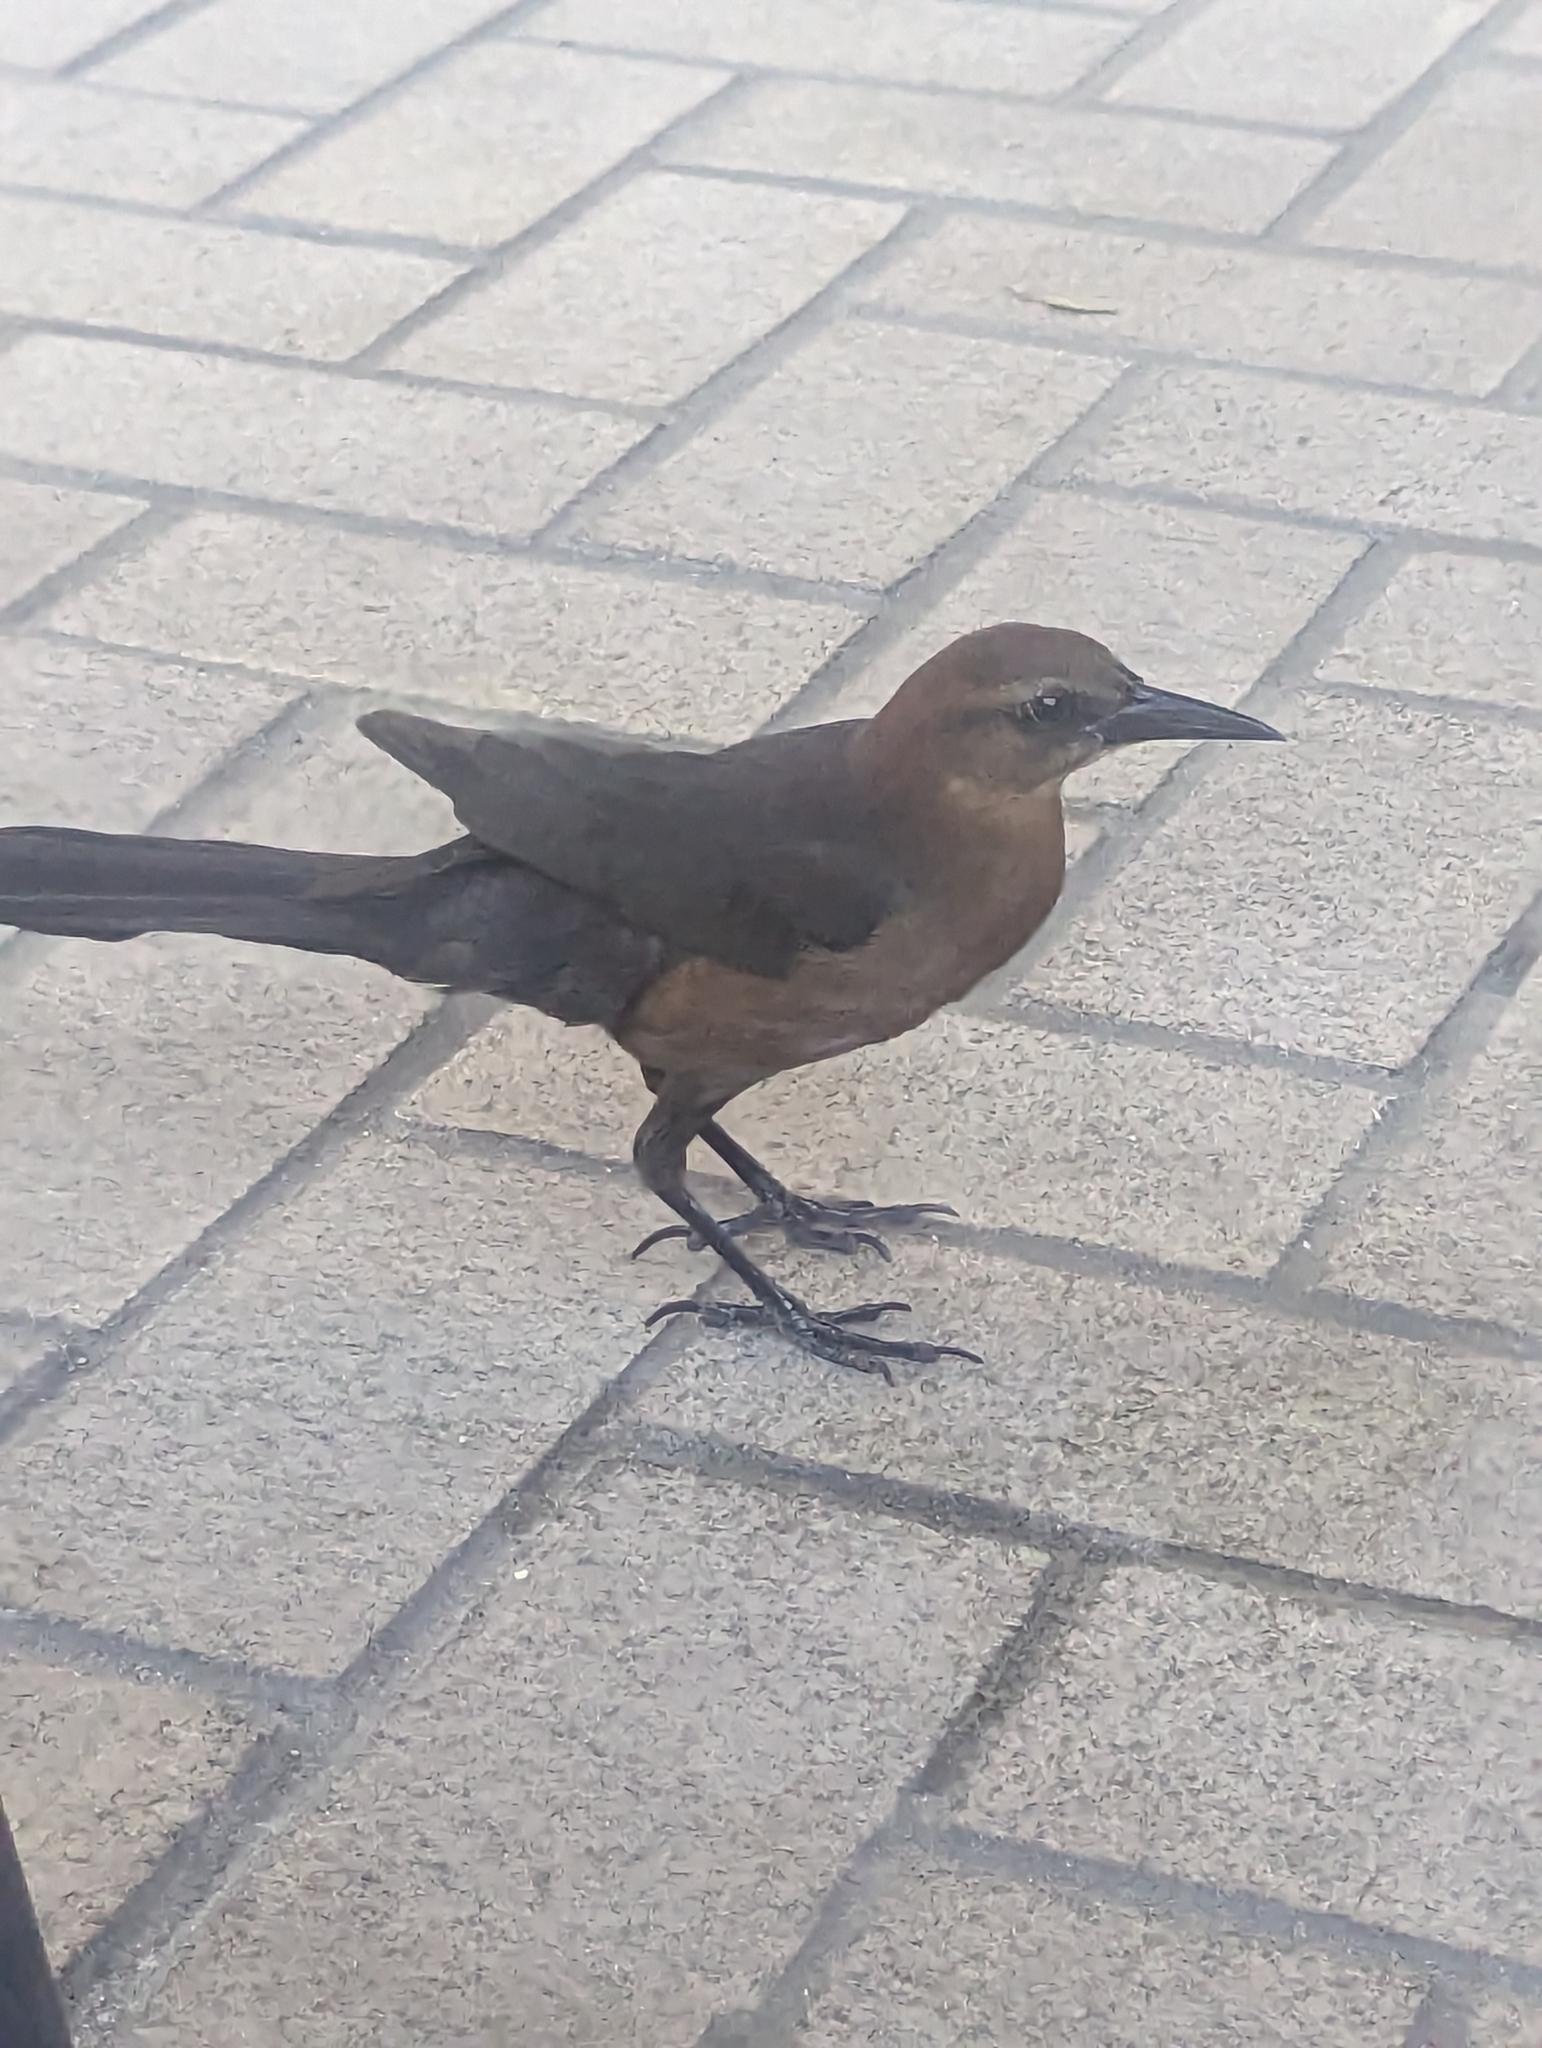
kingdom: Animalia
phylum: Chordata
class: Aves
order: Passeriformes
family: Icteridae
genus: Quiscalus
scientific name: Quiscalus major
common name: Boat-tailed grackle
